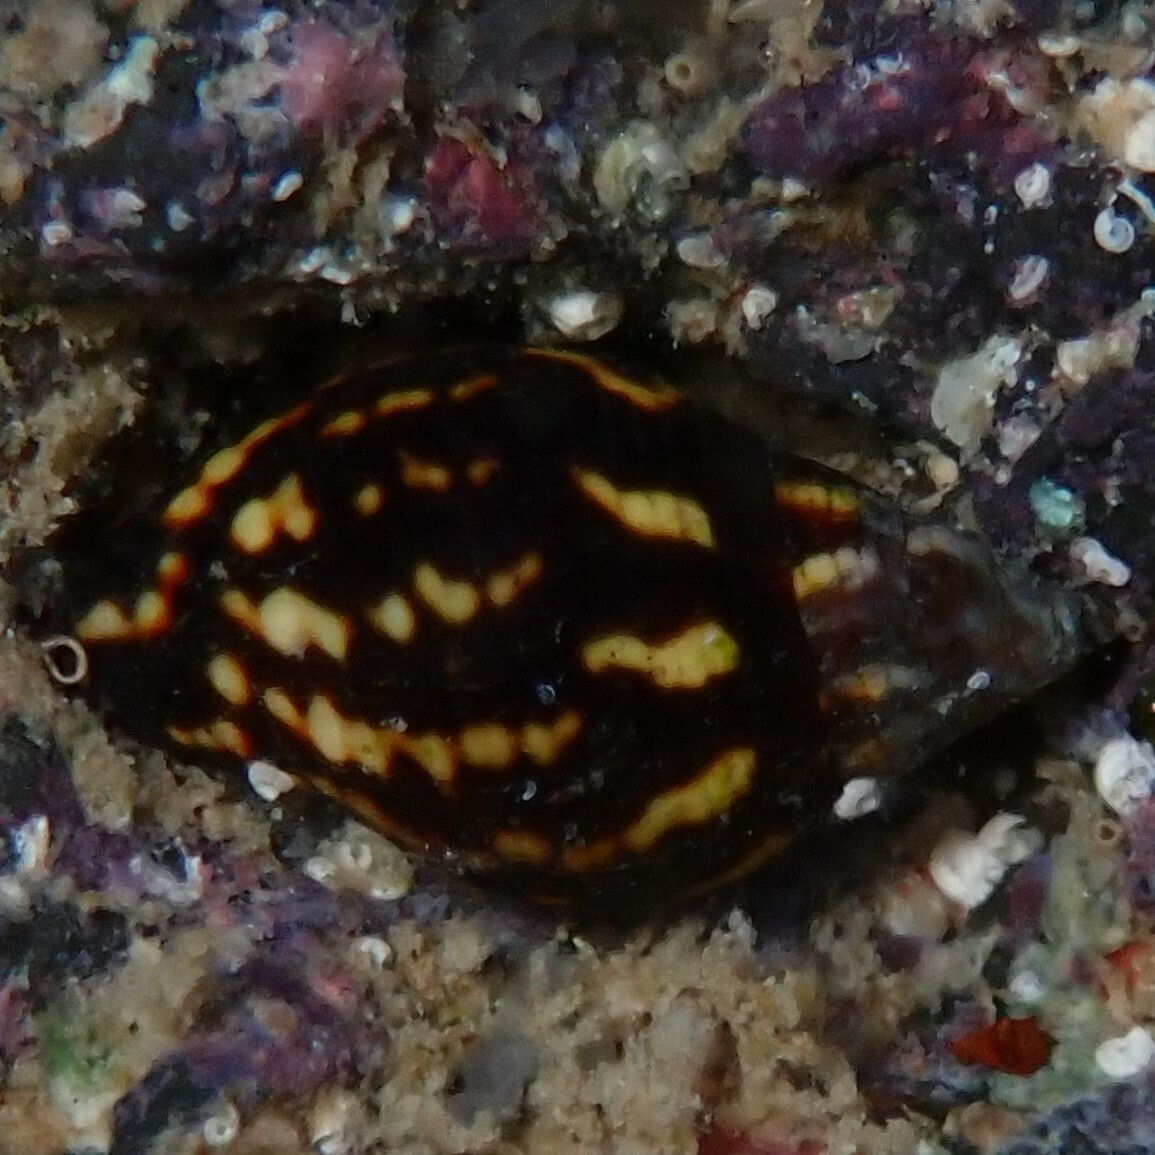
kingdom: Animalia
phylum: Mollusca
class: Gastropoda
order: Neogastropoda
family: Mitridae
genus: Strigatella
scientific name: Strigatella litterata
